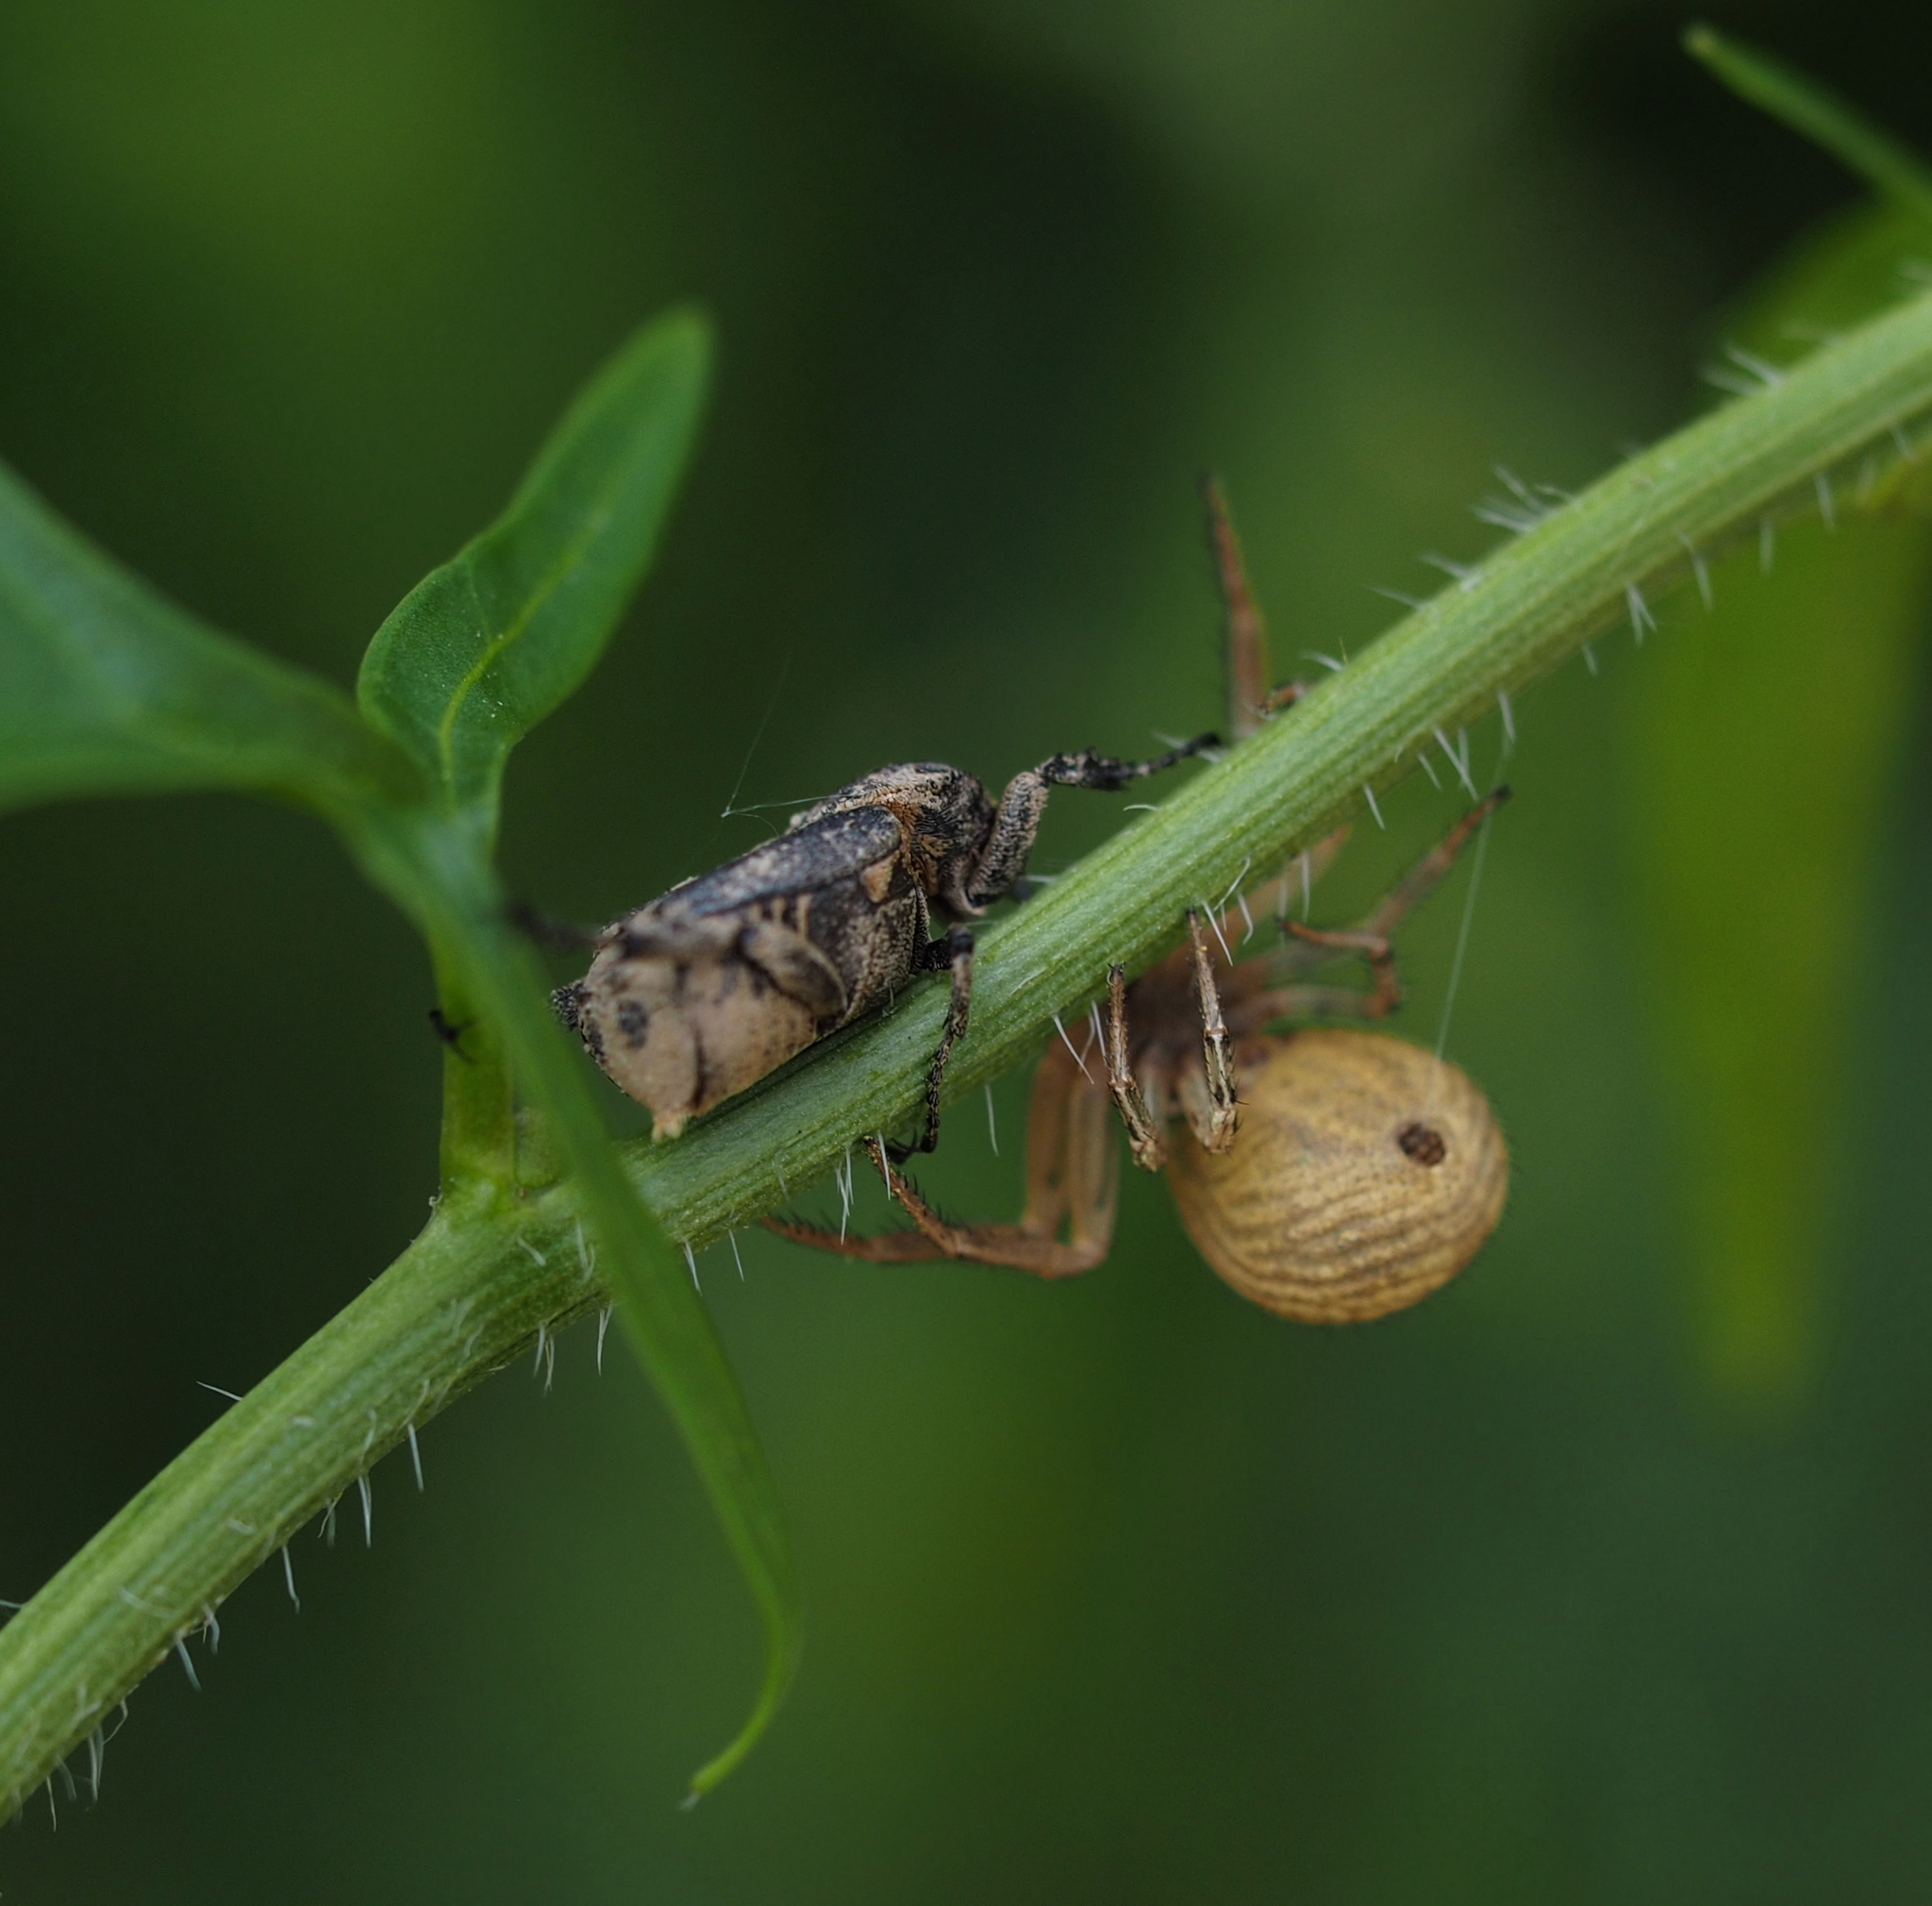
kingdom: Animalia
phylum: Arthropoda
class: Insecta
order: Coleoptera
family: Scarabaeidae
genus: Valgus
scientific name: Valgus hemipterus
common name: Bug flower chafer
